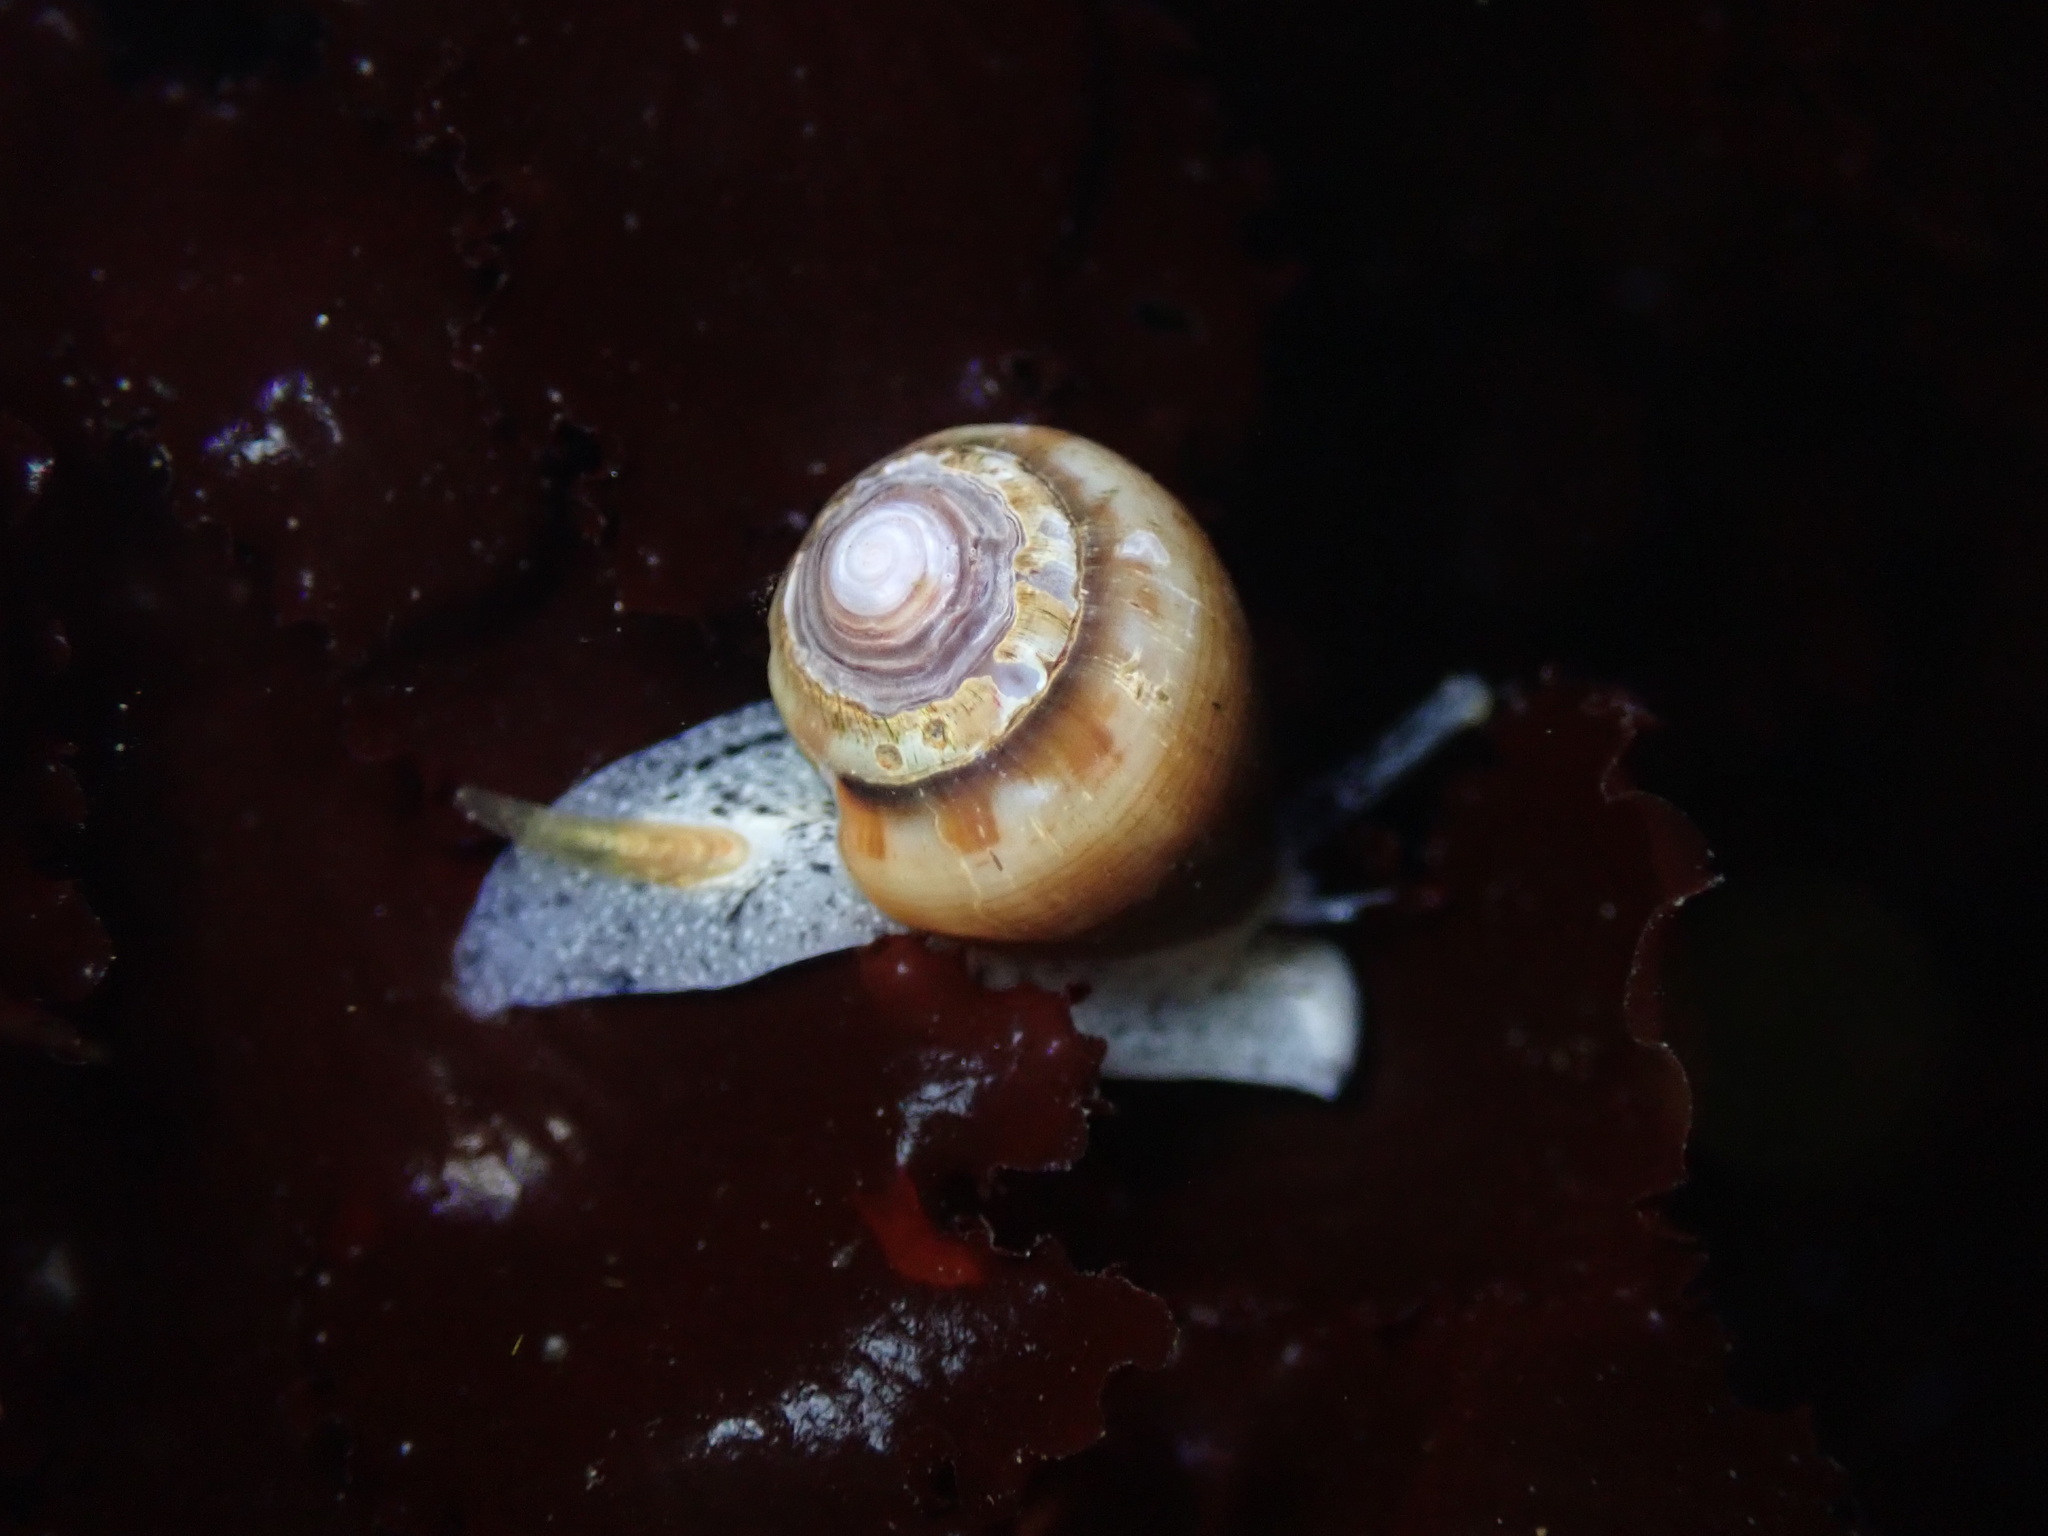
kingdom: Animalia
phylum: Mollusca
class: Gastropoda
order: Neogastropoda
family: Conidae
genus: Californiconus
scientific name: Californiconus californicus
